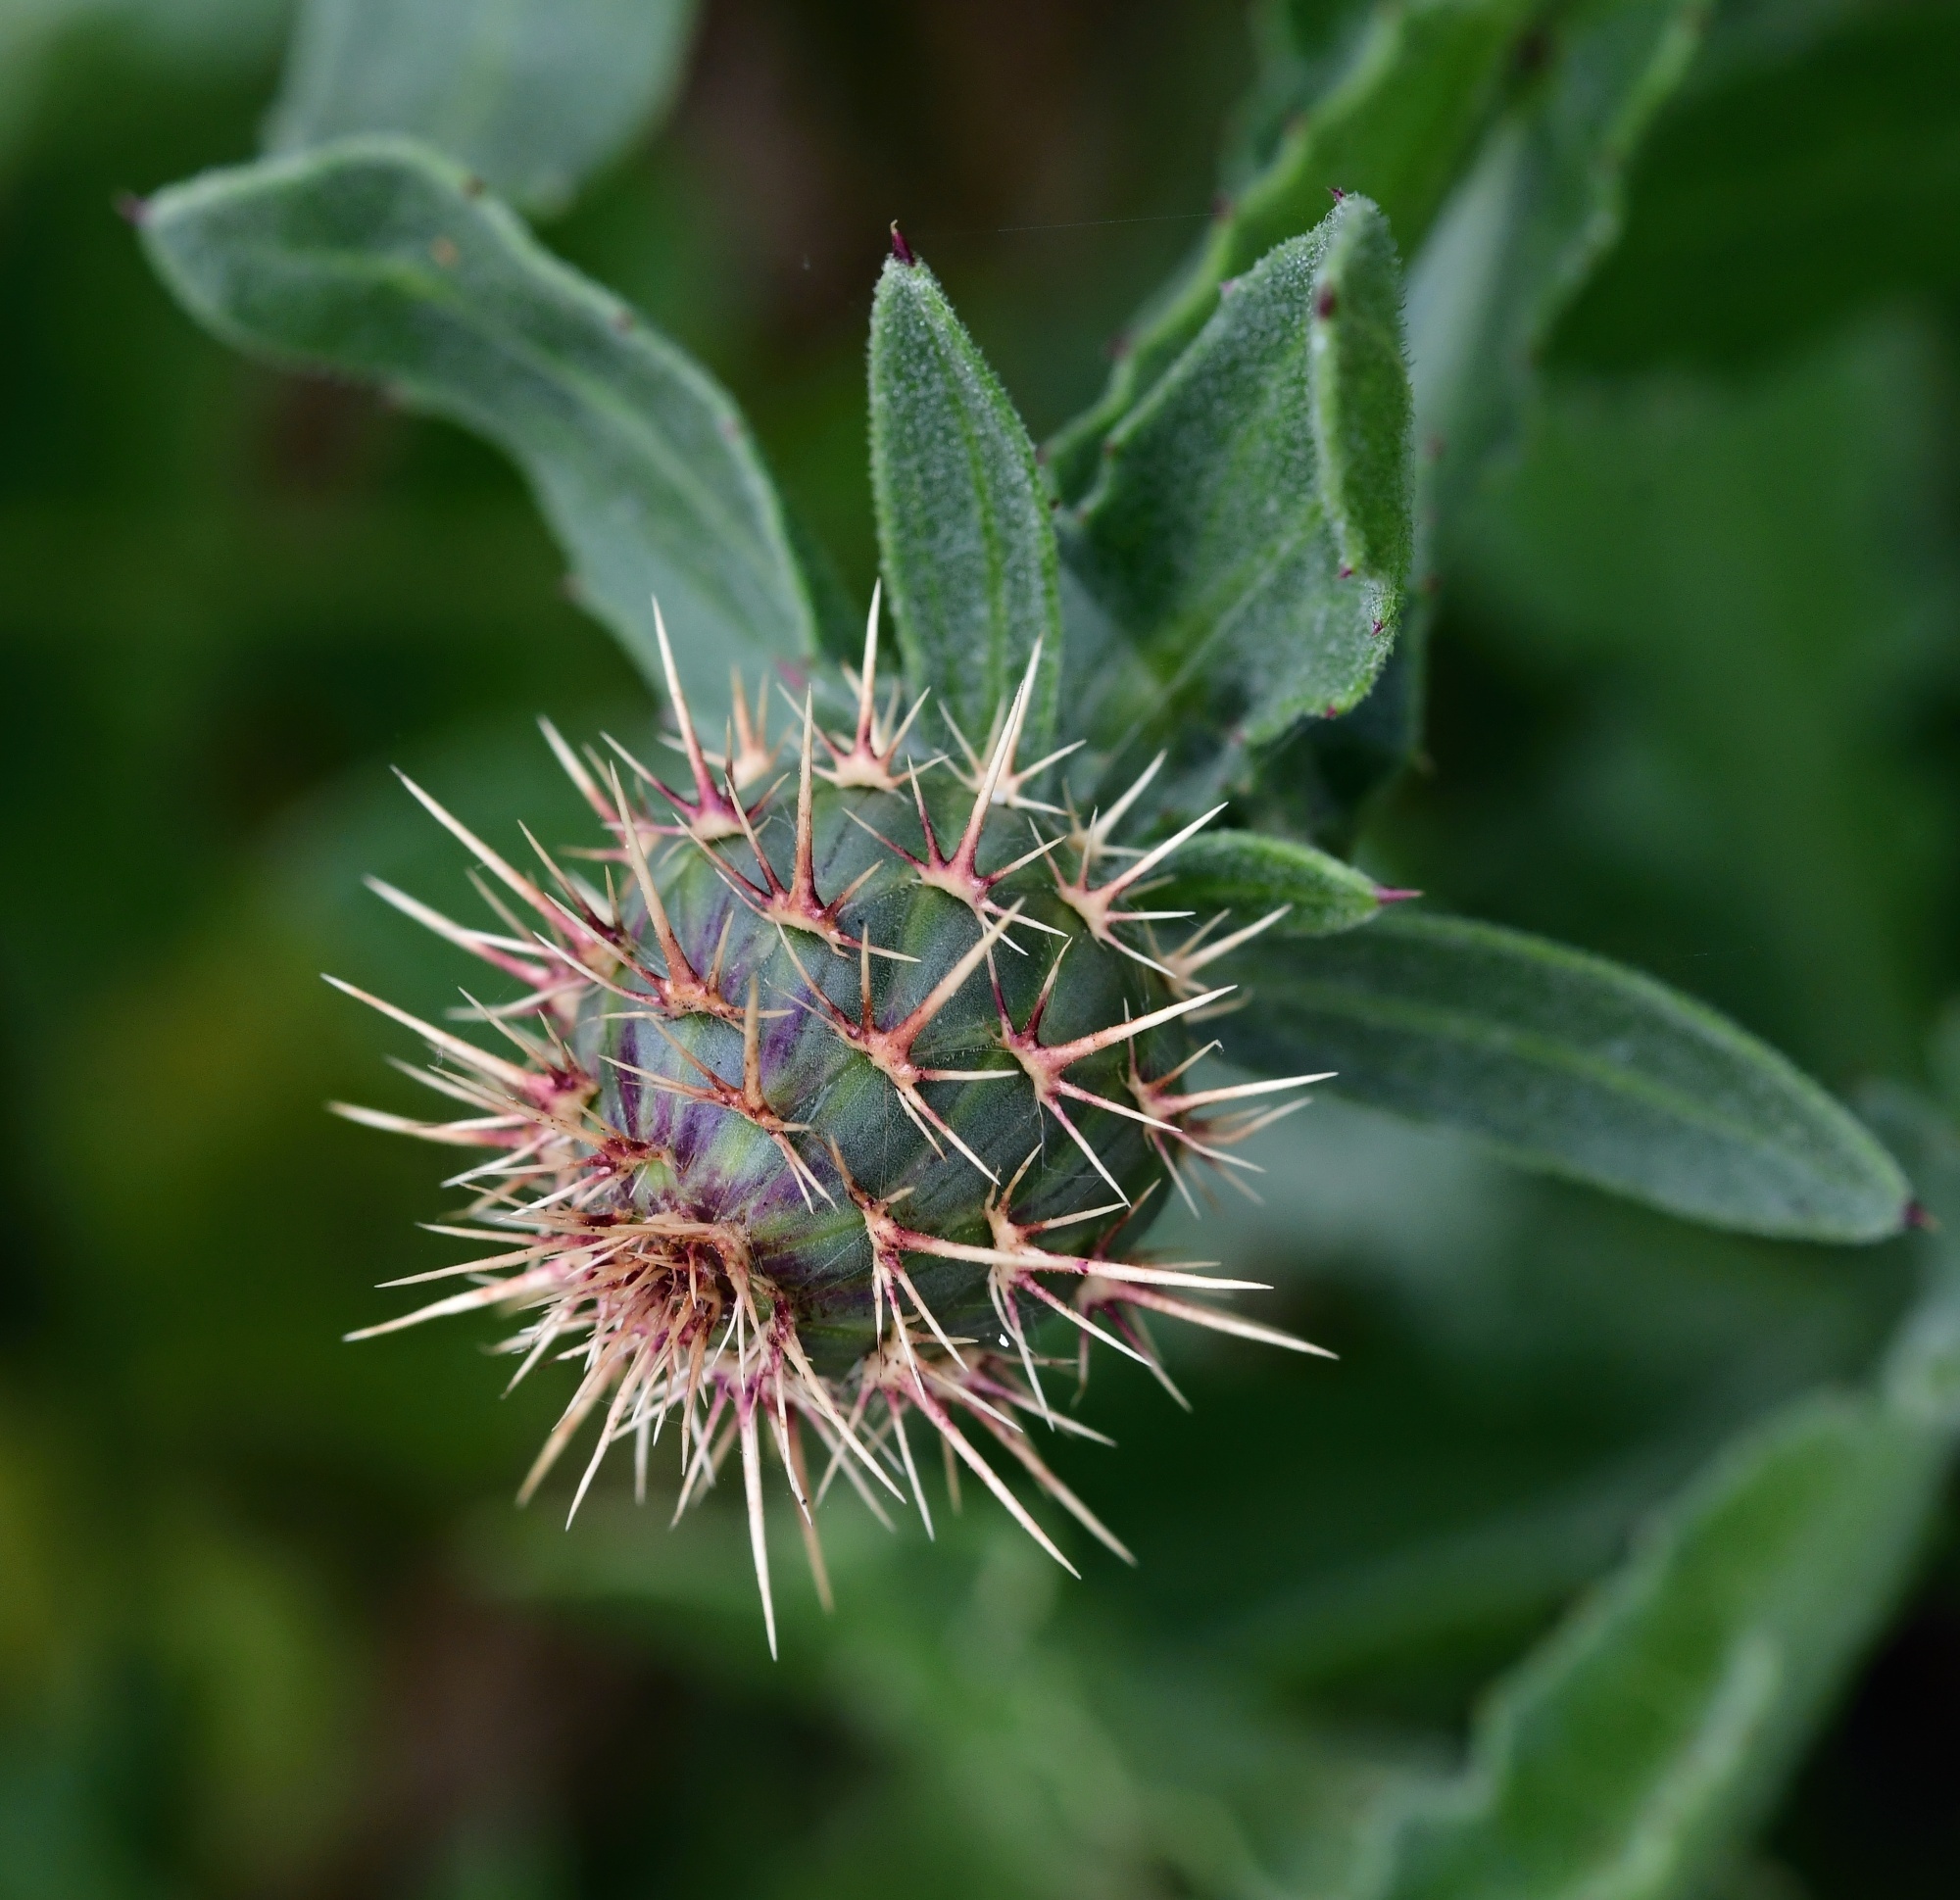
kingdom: Plantae
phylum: Tracheophyta
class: Magnoliopsida
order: Asterales
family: Asteraceae
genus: Centaurea
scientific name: Centaurea seridis
